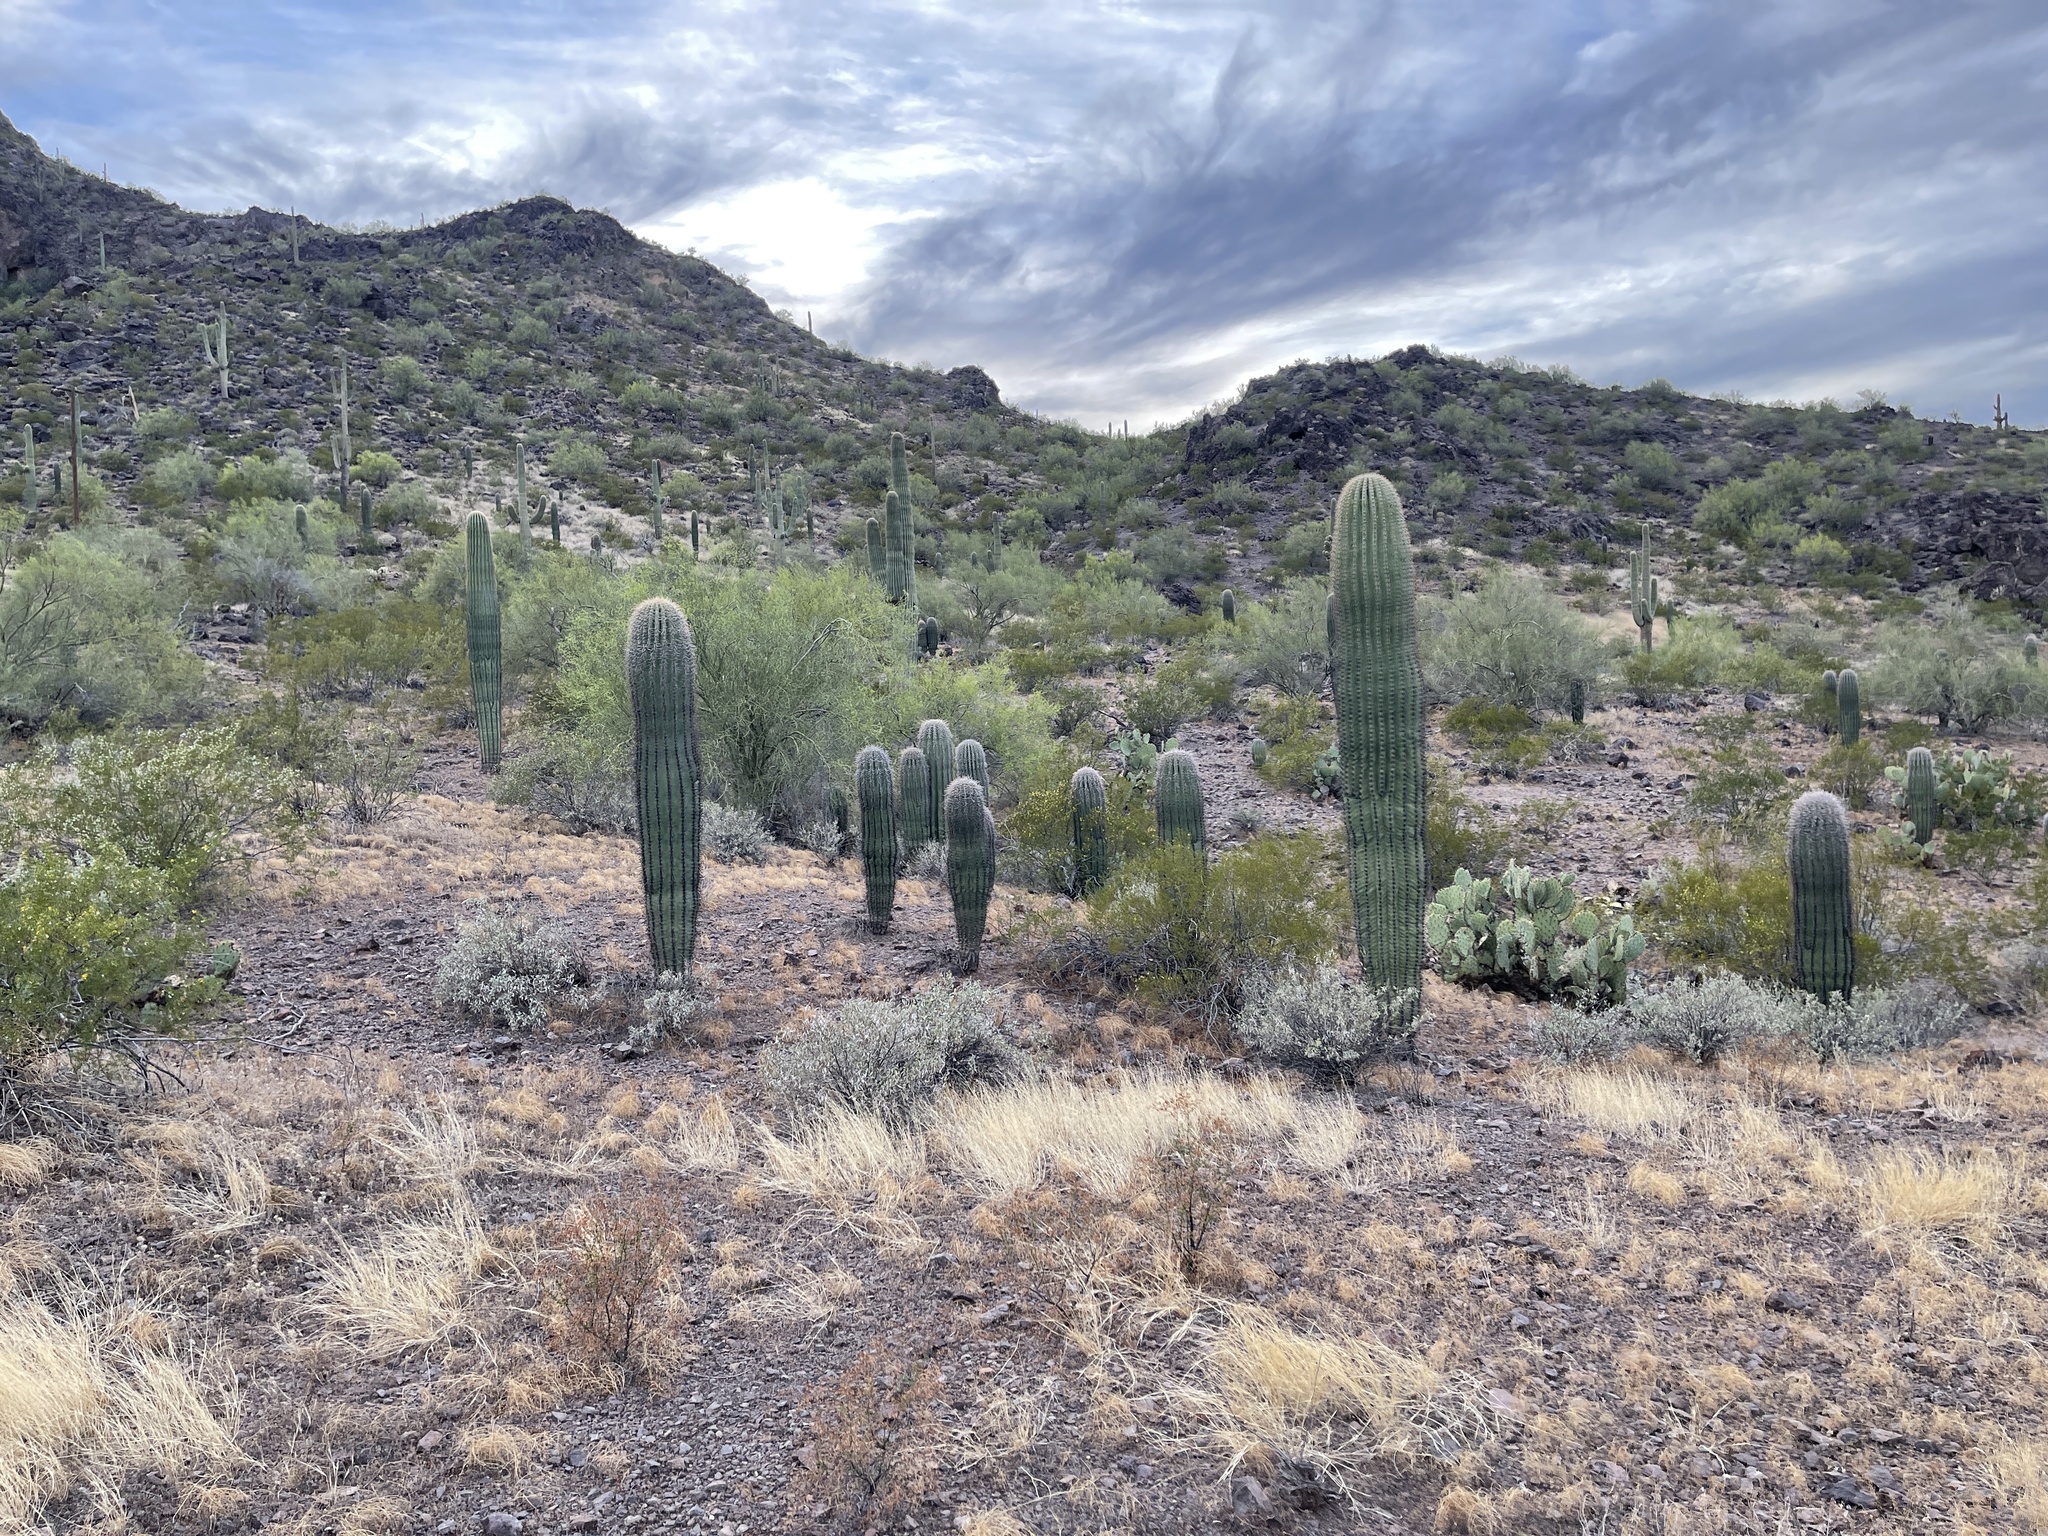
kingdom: Plantae
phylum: Tracheophyta
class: Magnoliopsida
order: Caryophyllales
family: Cactaceae
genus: Carnegiea
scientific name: Carnegiea gigantea
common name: Saguaro
